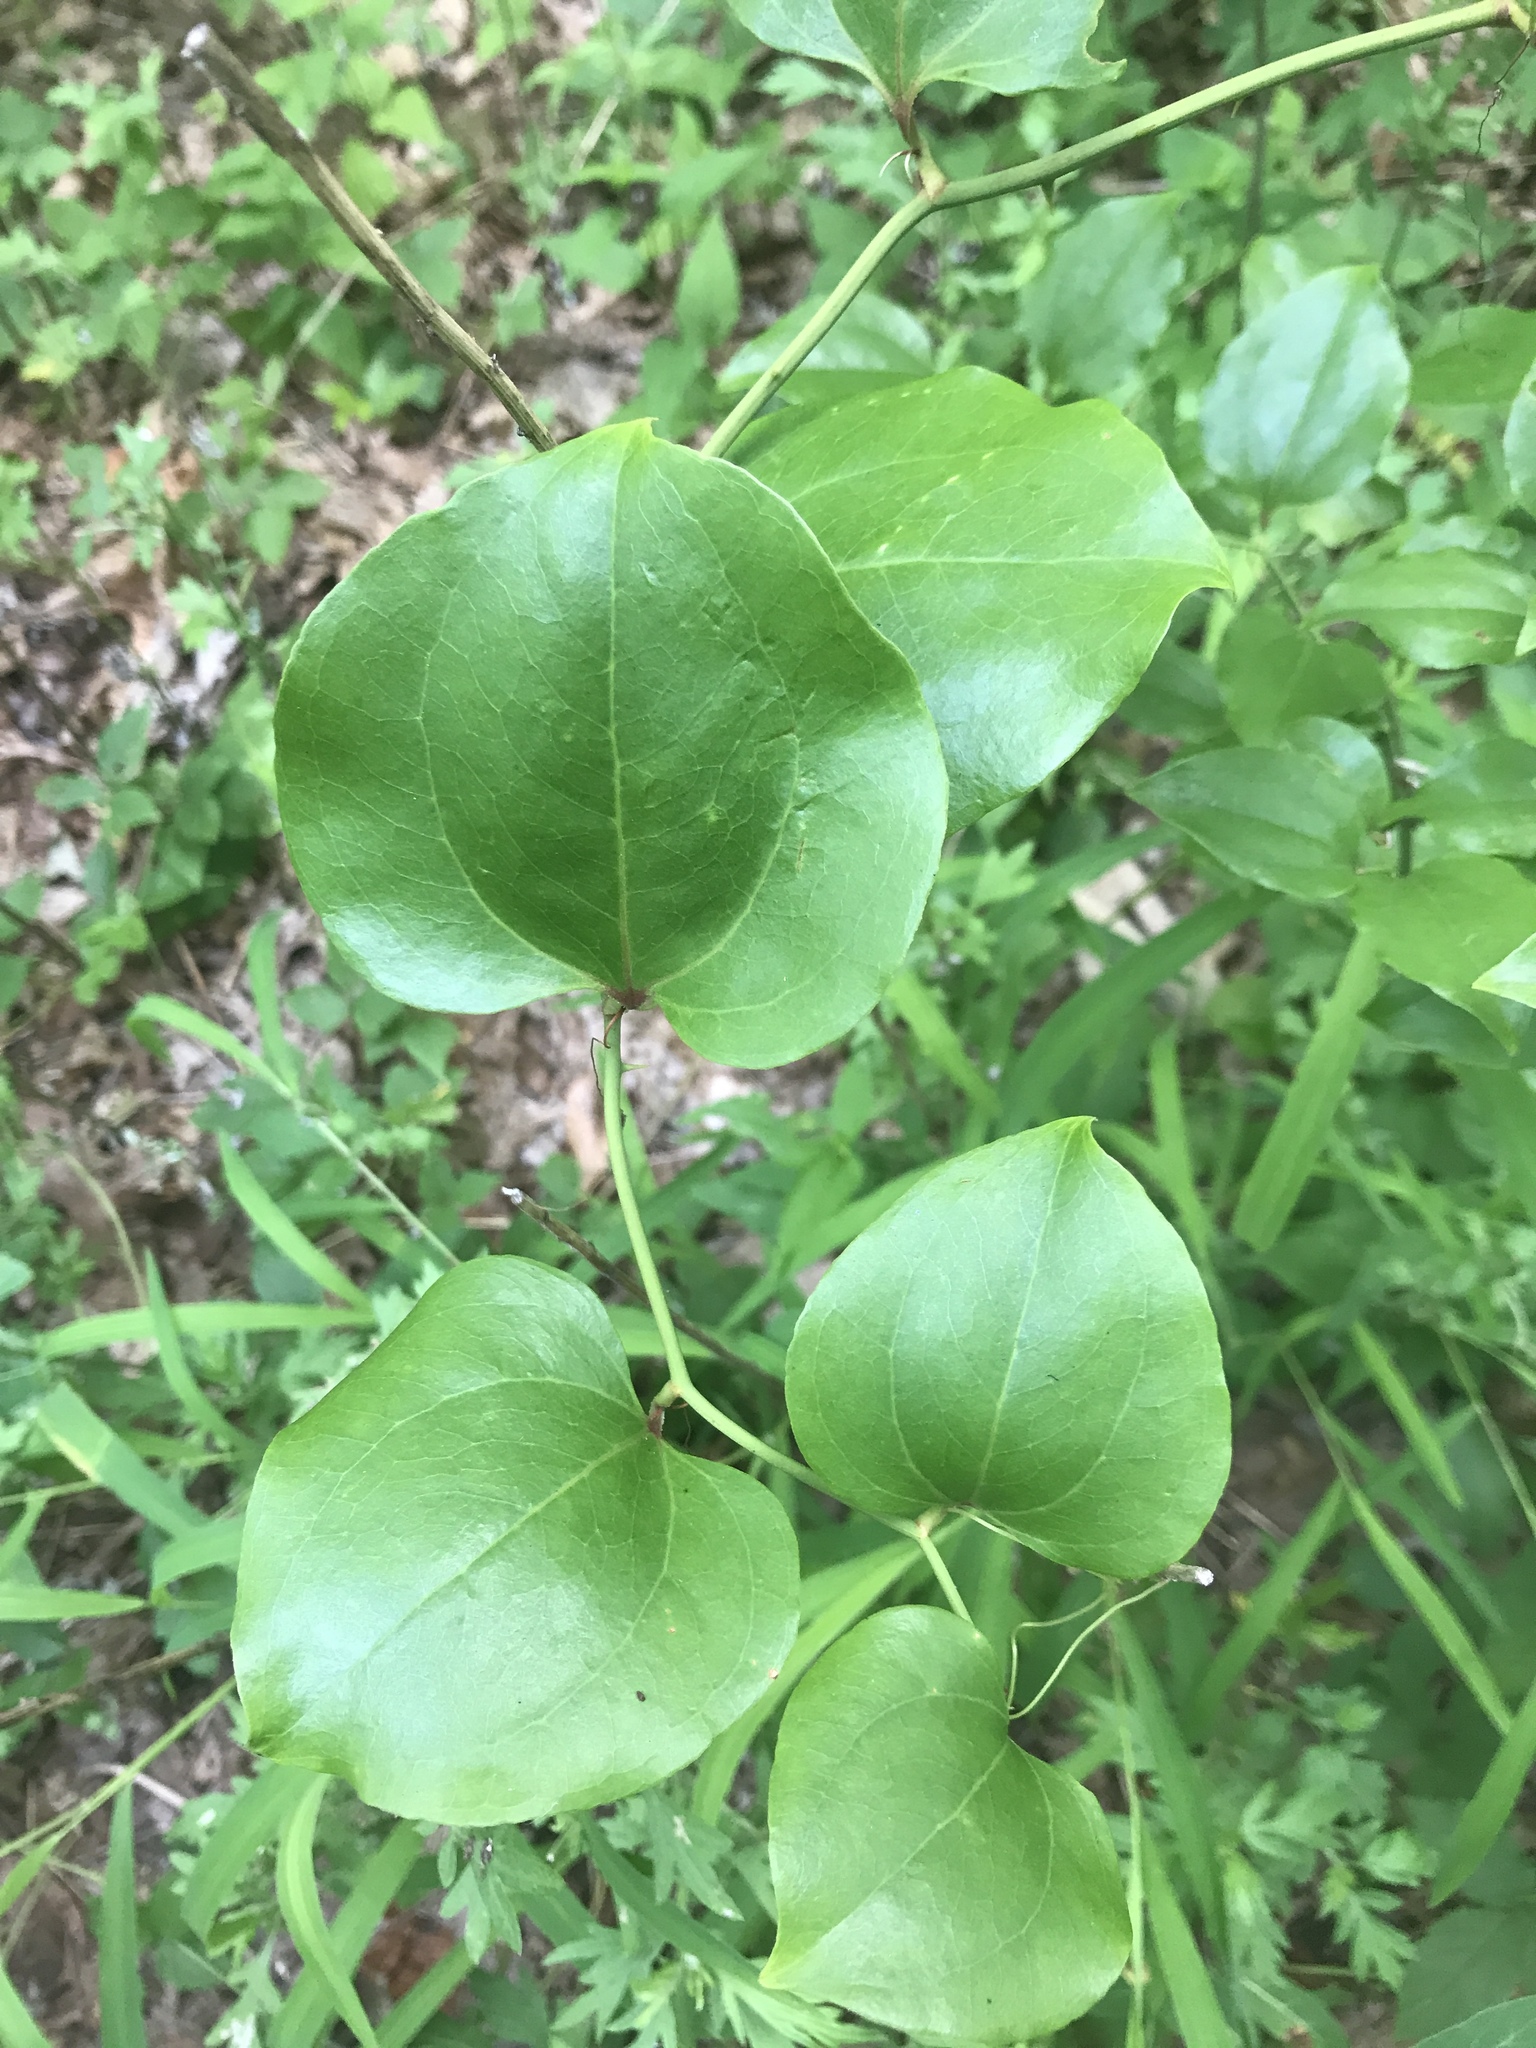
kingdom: Plantae
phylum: Tracheophyta
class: Liliopsida
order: Liliales
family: Smilacaceae
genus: Smilax
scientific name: Smilax rotundifolia
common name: Bullbriar
